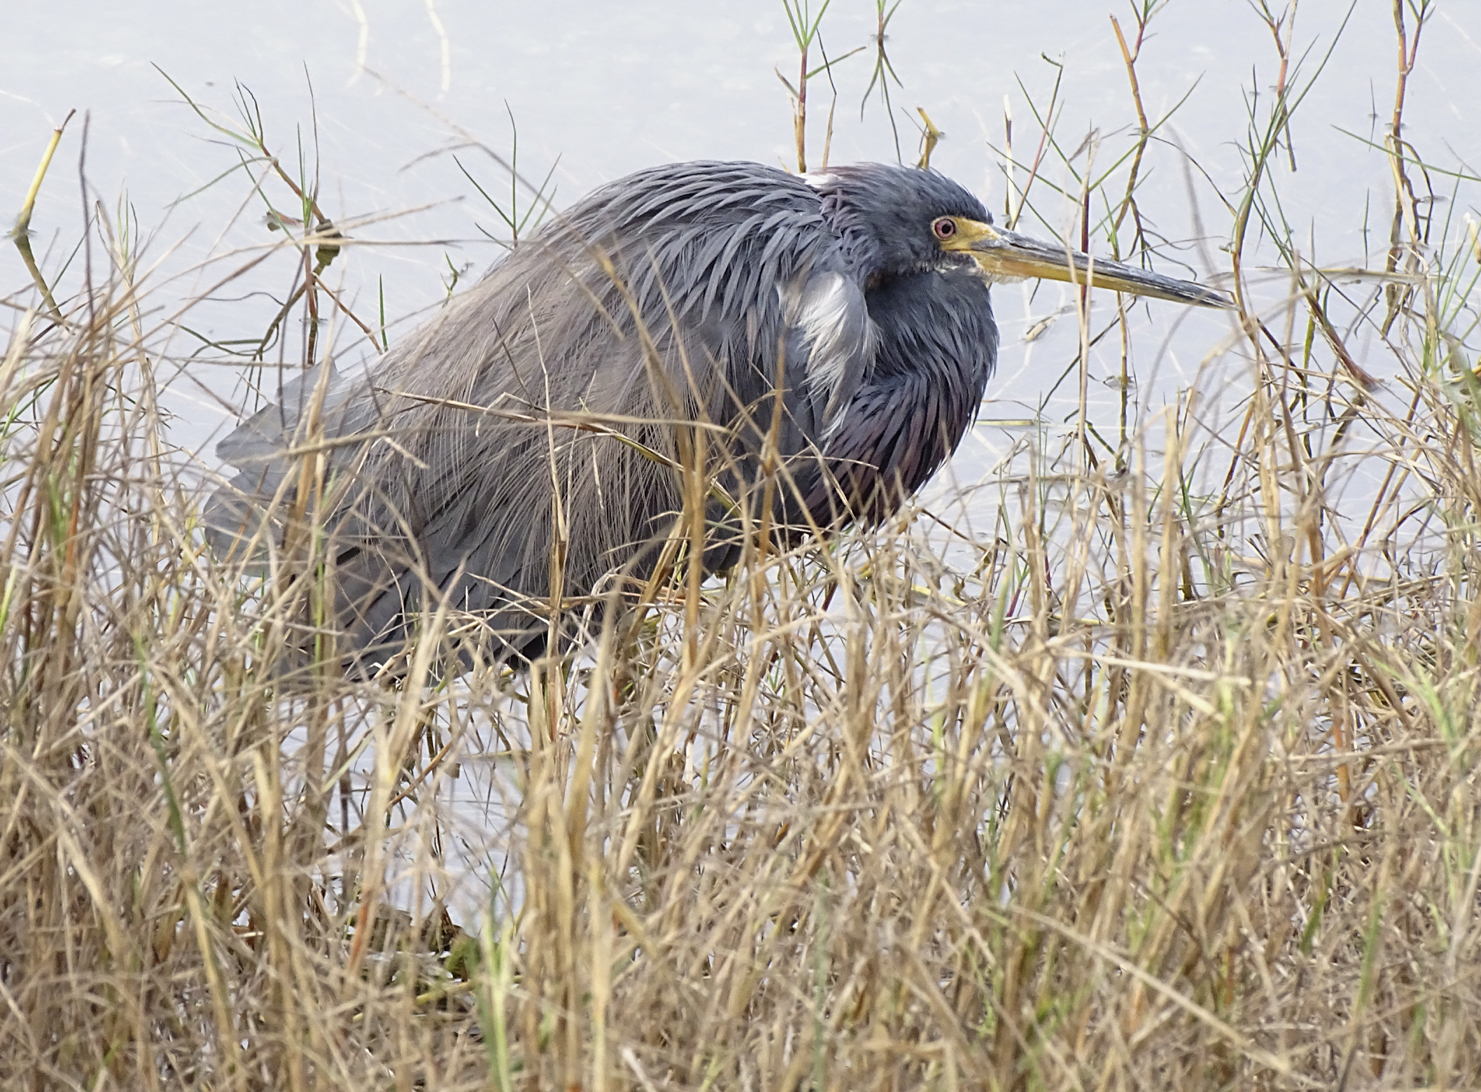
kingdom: Animalia
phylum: Chordata
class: Aves
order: Pelecaniformes
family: Ardeidae
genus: Egretta
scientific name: Egretta tricolor
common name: Tricolored heron
